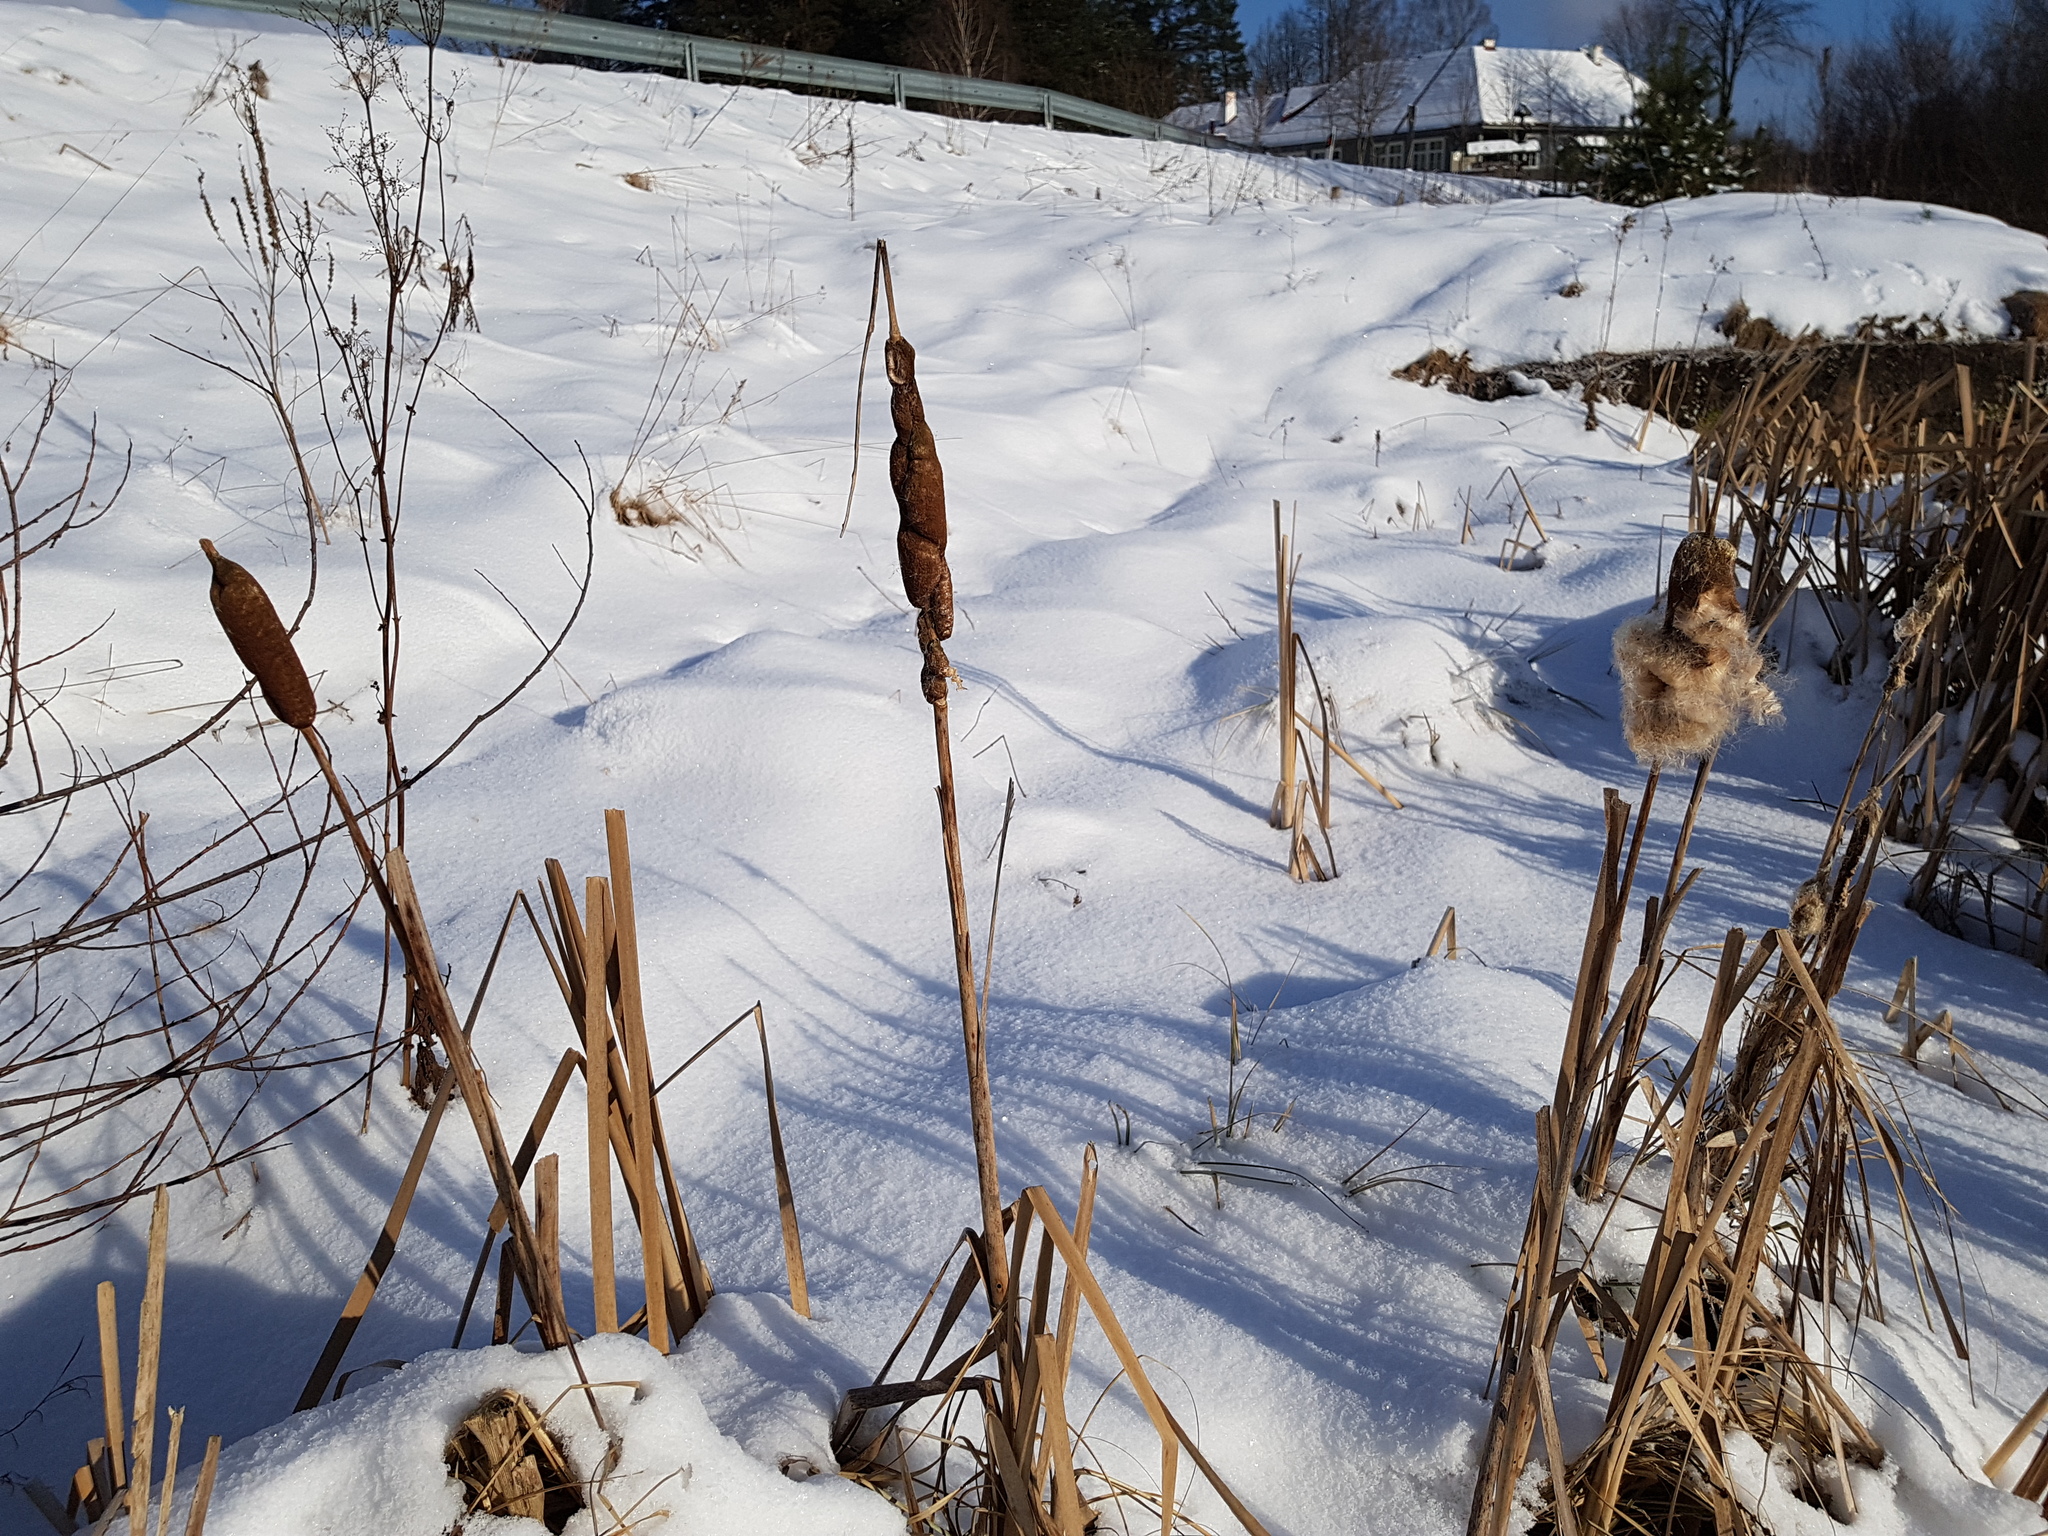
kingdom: Plantae
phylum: Tracheophyta
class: Liliopsida
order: Poales
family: Typhaceae
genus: Typha
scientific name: Typha latifolia
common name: Broadleaf cattail
